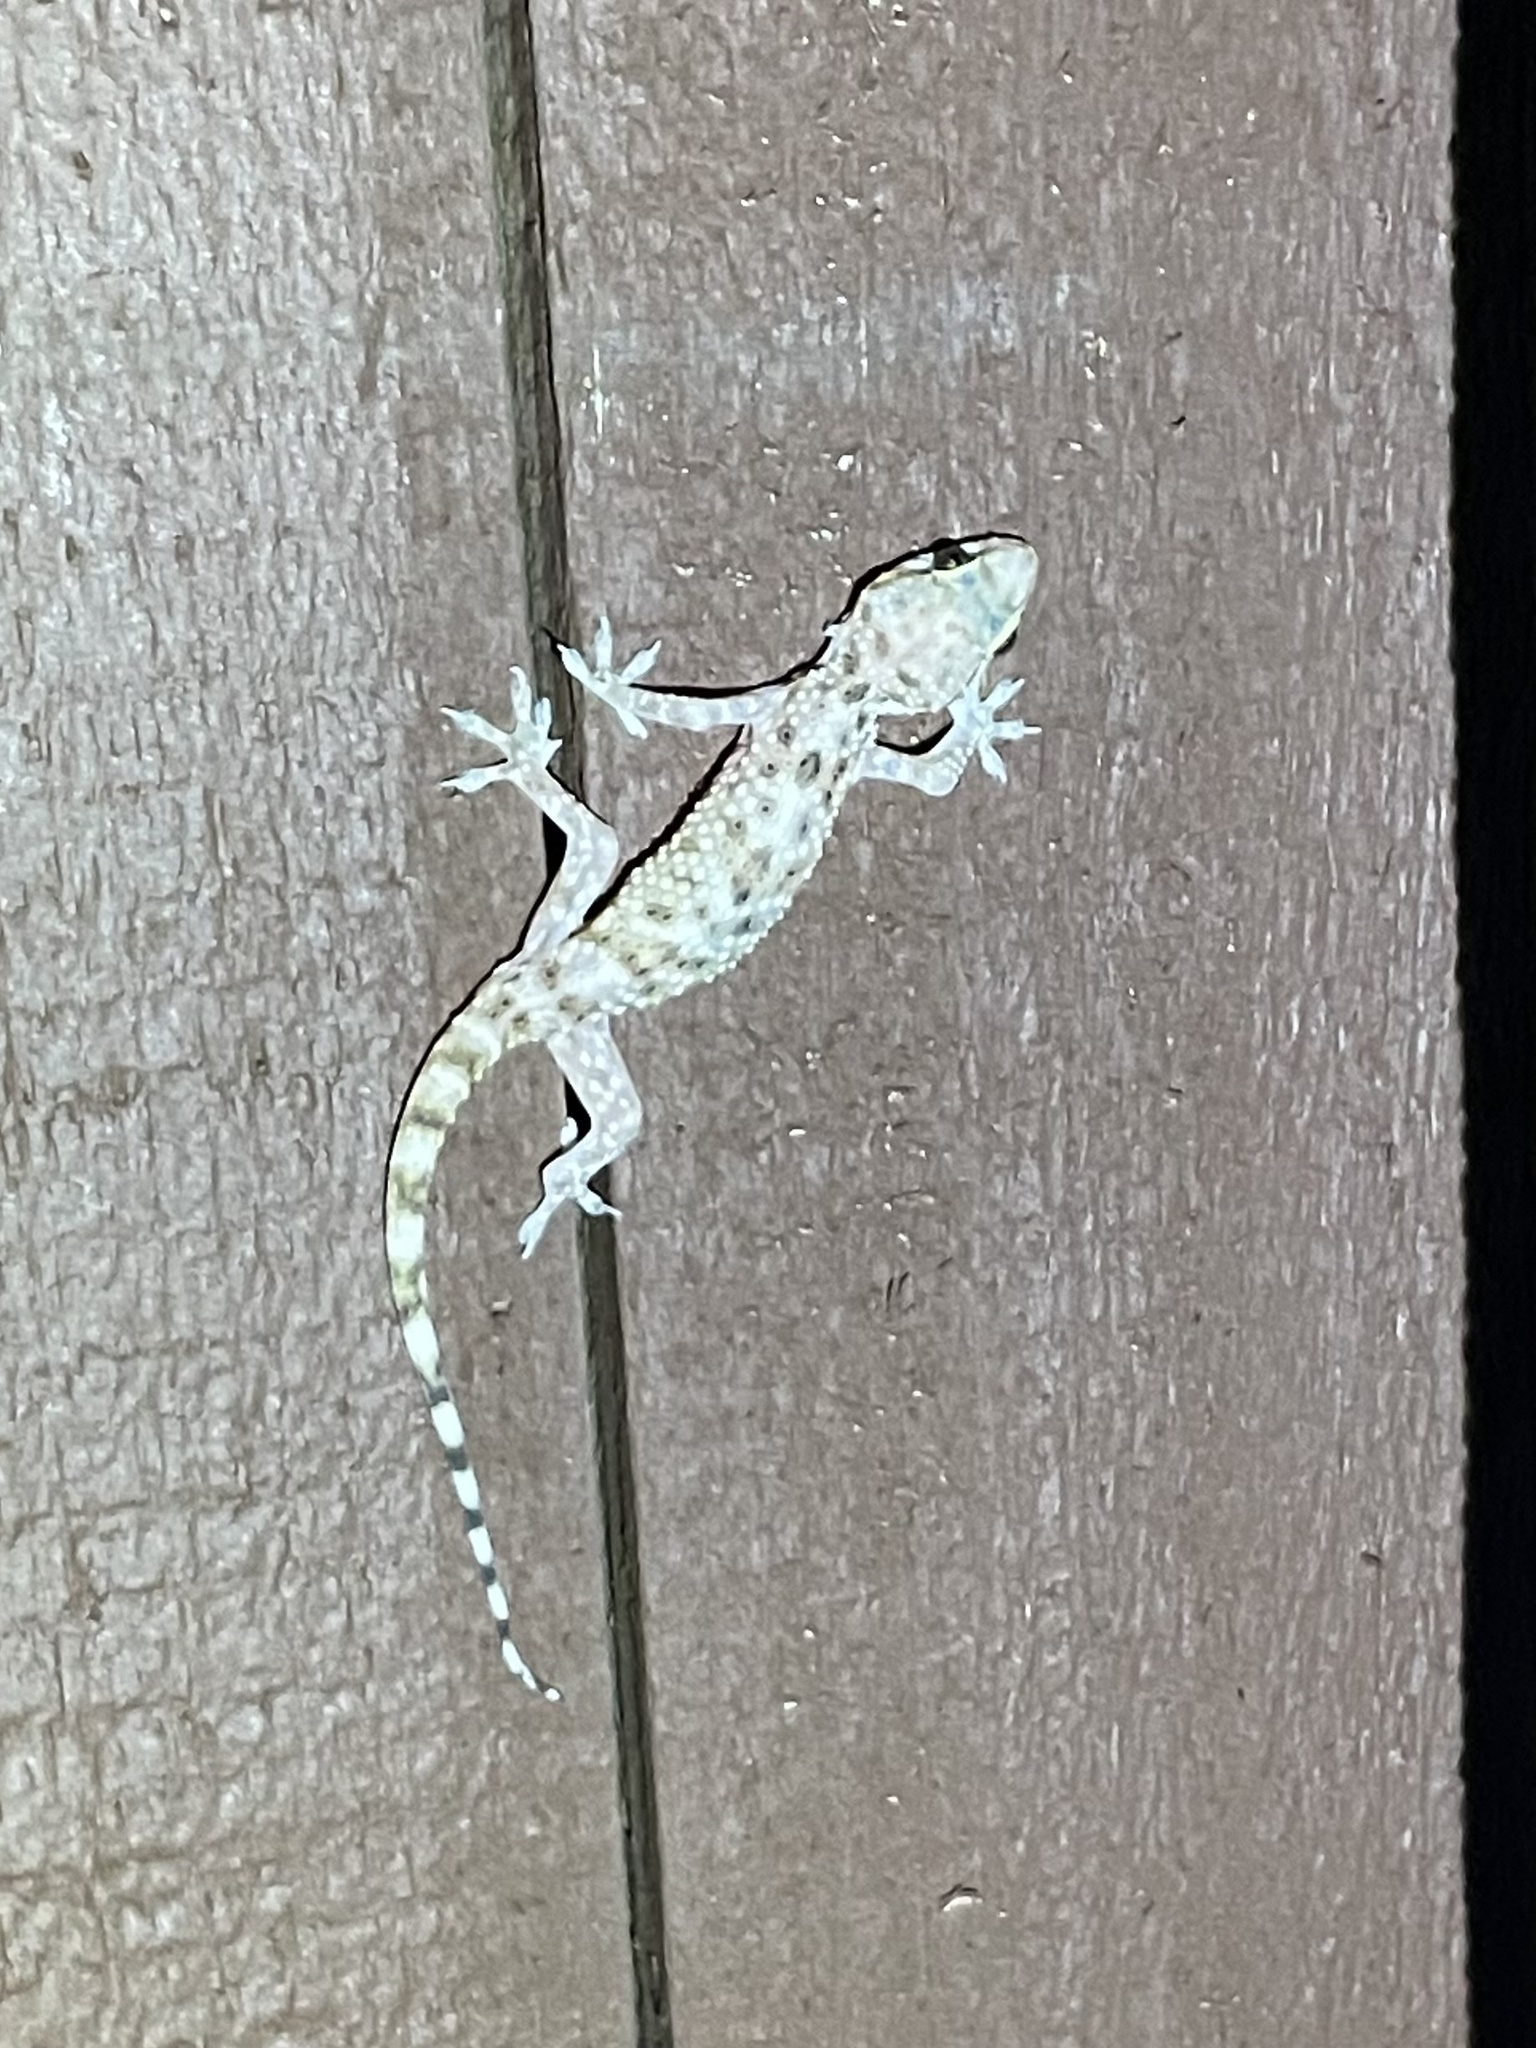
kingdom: Animalia
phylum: Chordata
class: Squamata
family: Gekkonidae
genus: Hemidactylus
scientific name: Hemidactylus turcicus
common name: Turkish gecko
